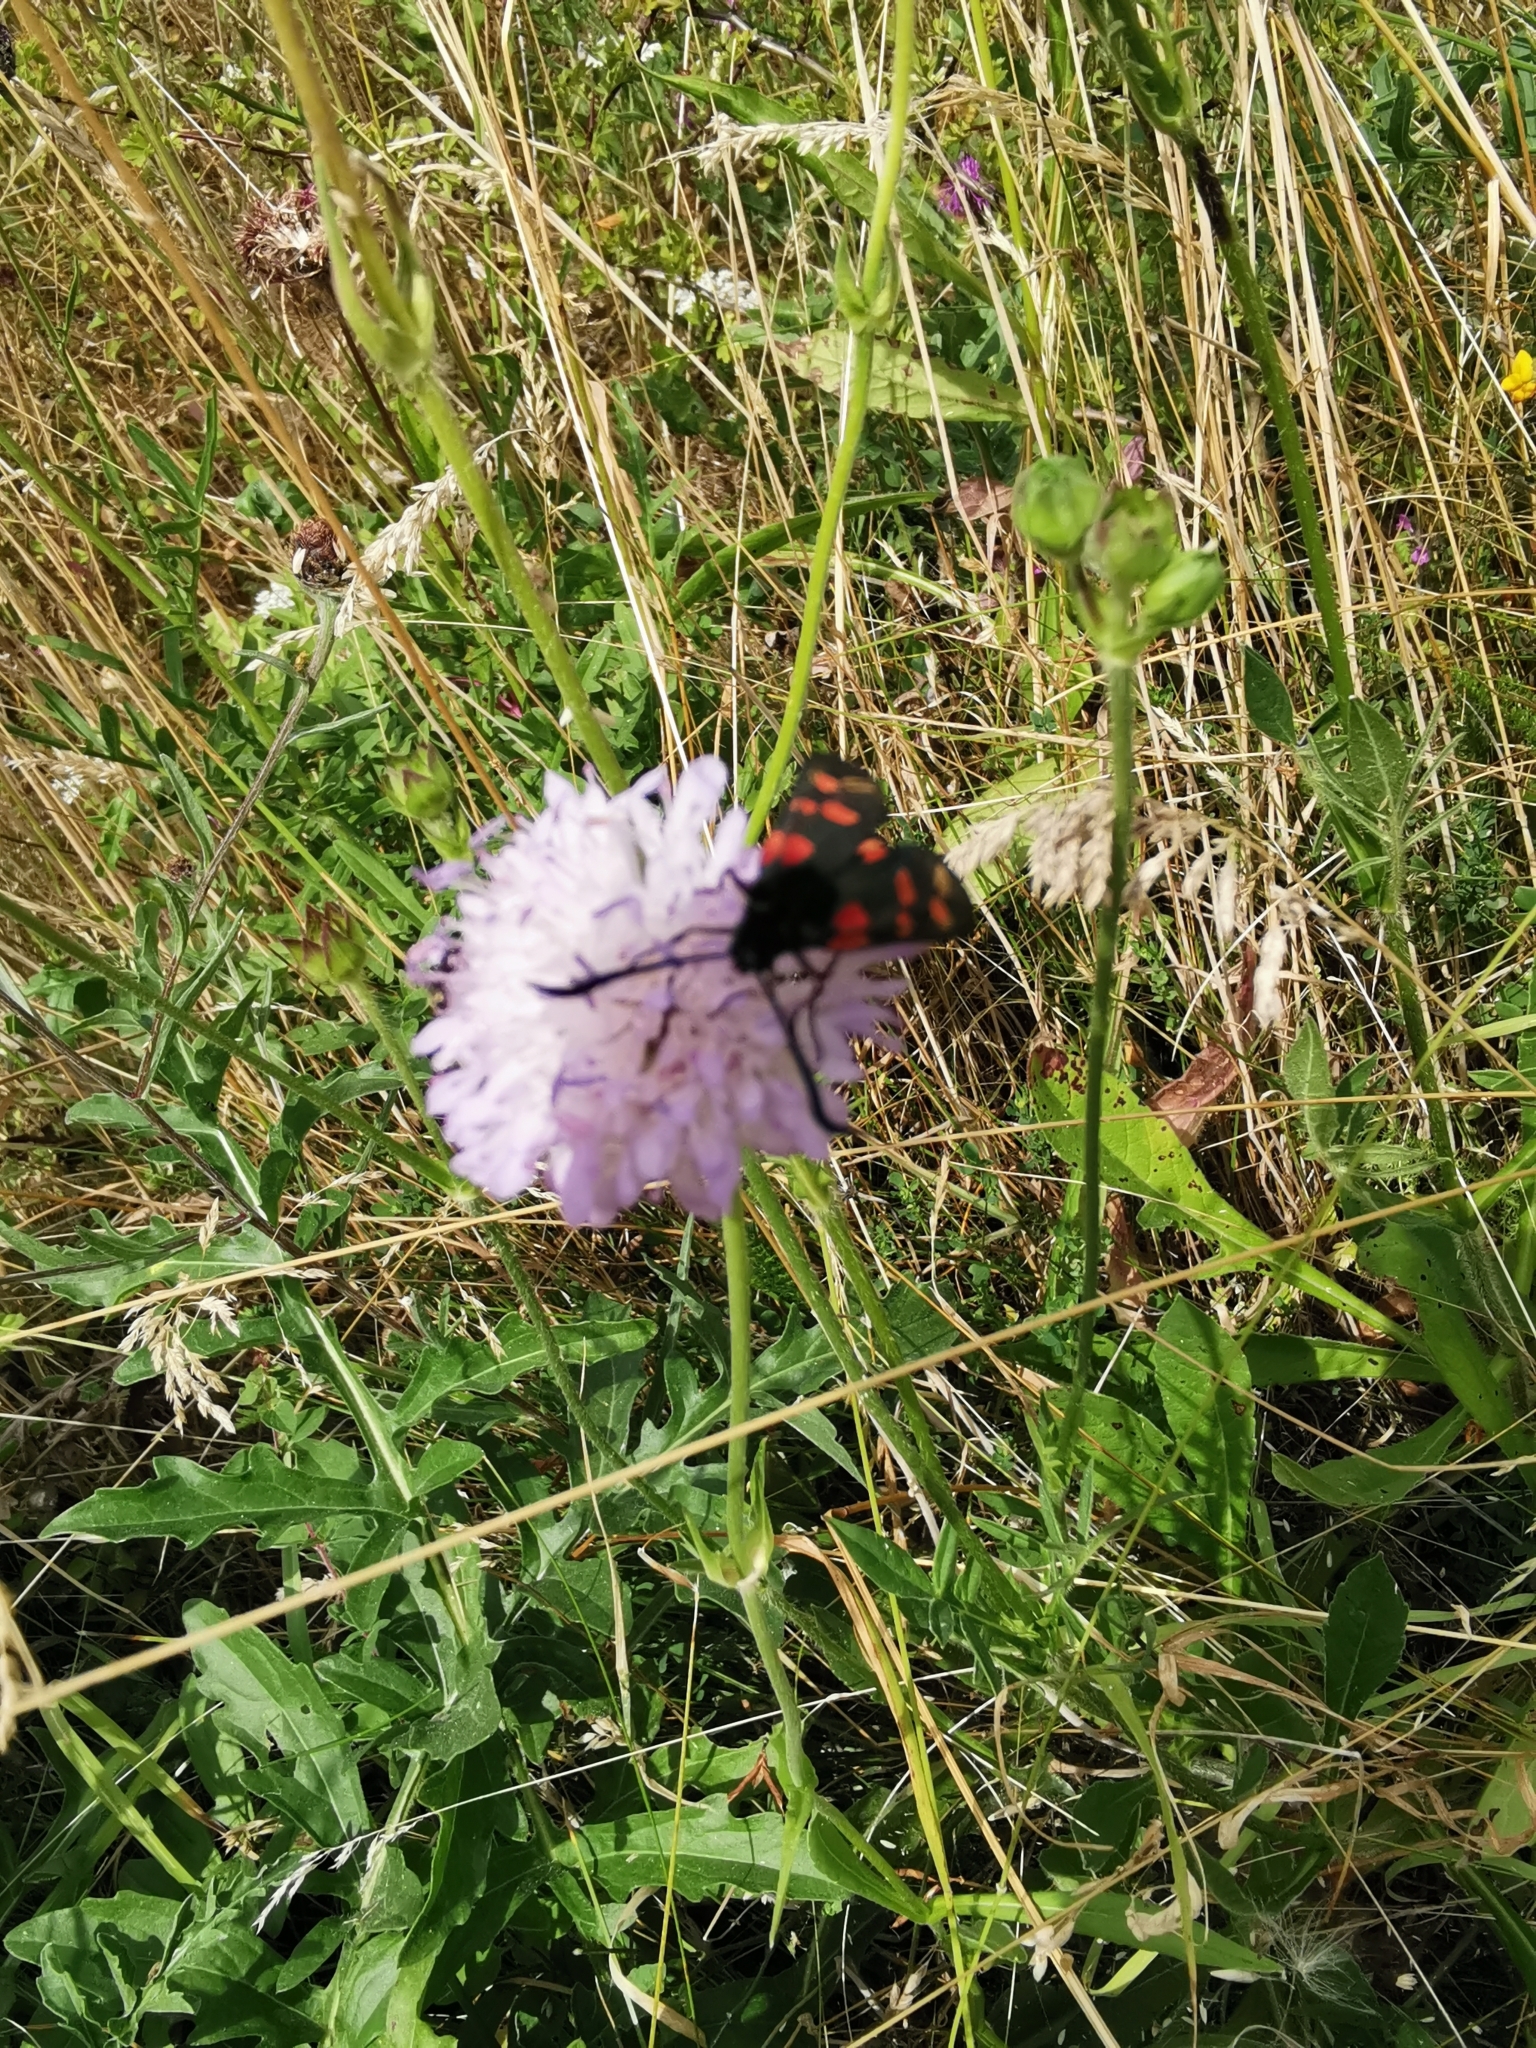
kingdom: Animalia
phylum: Arthropoda
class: Insecta
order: Lepidoptera
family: Zygaenidae
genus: Zygaena
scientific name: Zygaena filipendulae
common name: Six-spot burnet
